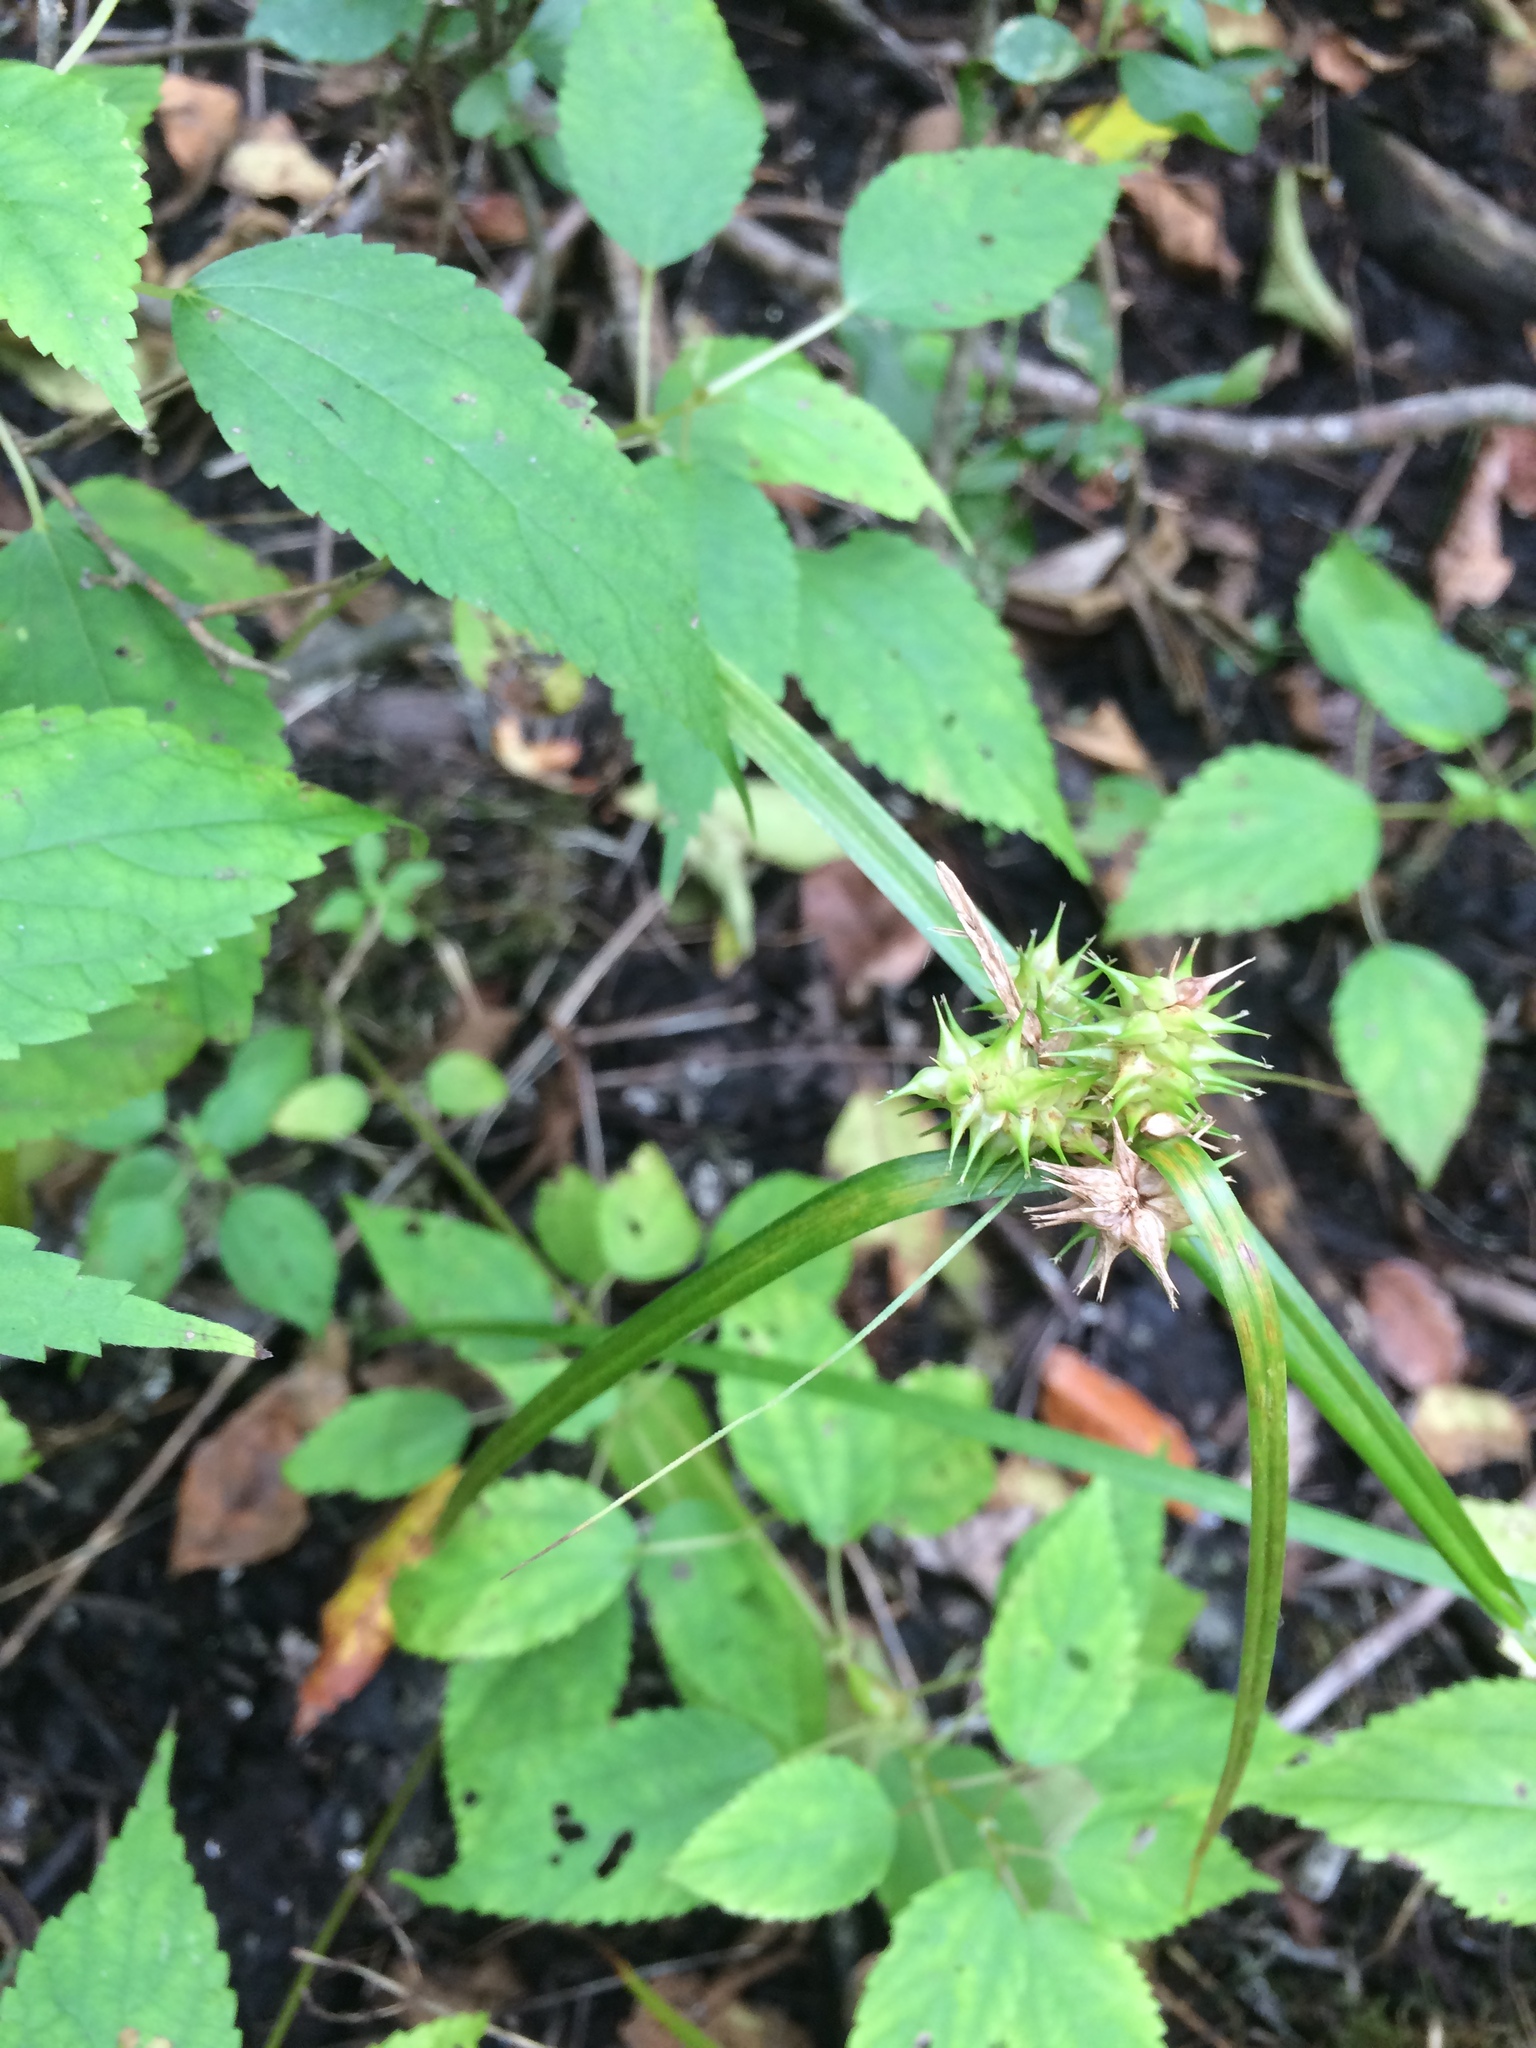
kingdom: Plantae
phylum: Tracheophyta
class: Liliopsida
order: Poales
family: Cyperaceae
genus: Carex
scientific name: Carex retrorsa
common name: Knot-sheath sedge
